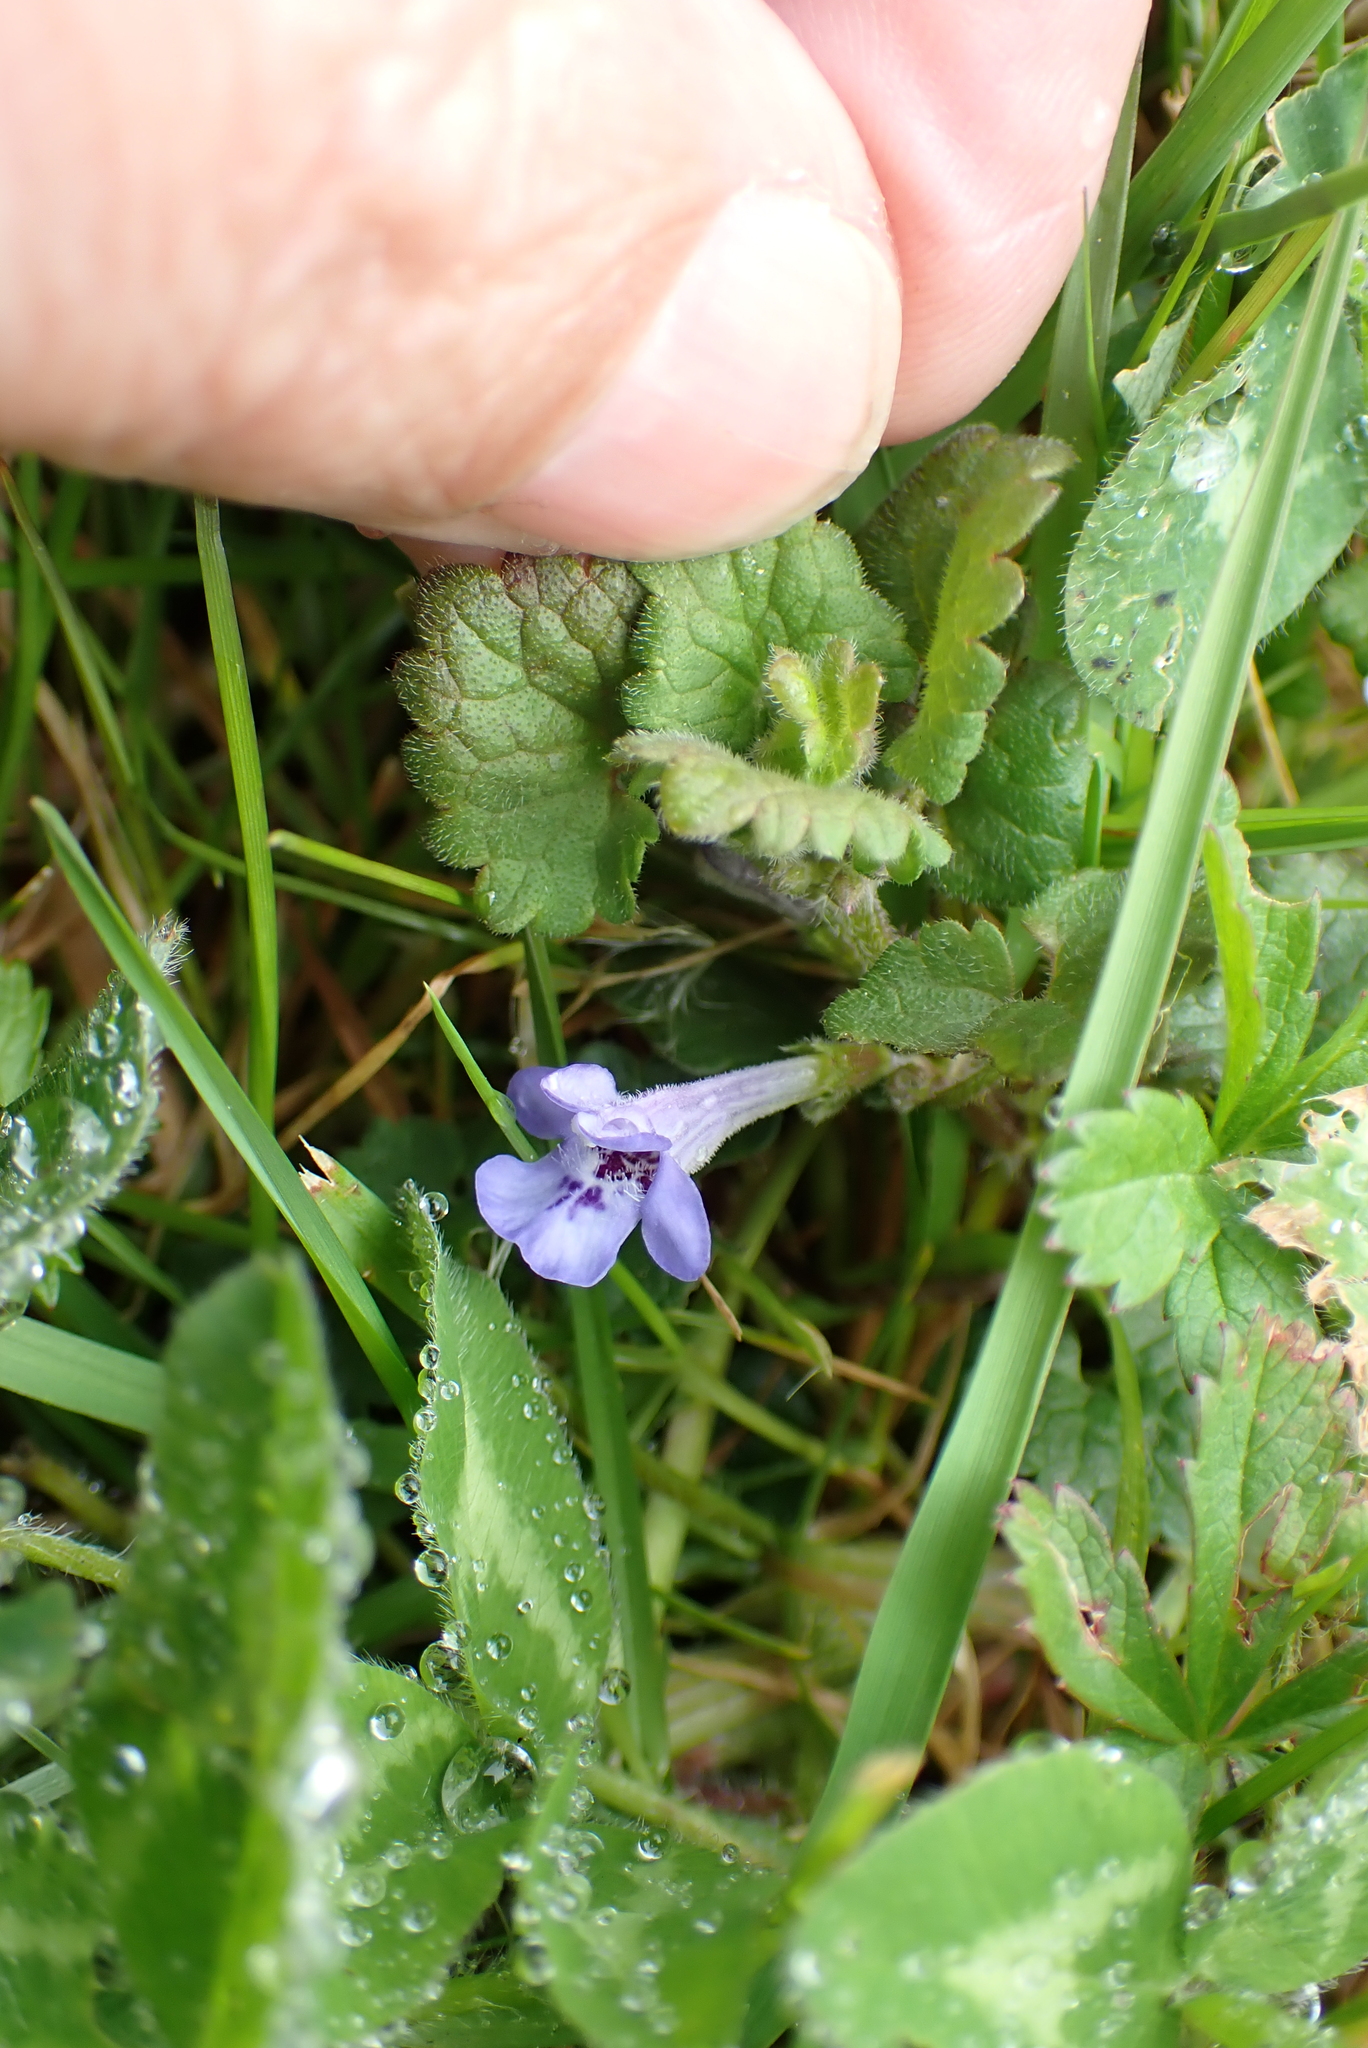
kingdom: Plantae
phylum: Tracheophyta
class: Magnoliopsida
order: Lamiales
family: Lamiaceae
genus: Glechoma
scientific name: Glechoma hederacea
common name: Ground ivy
